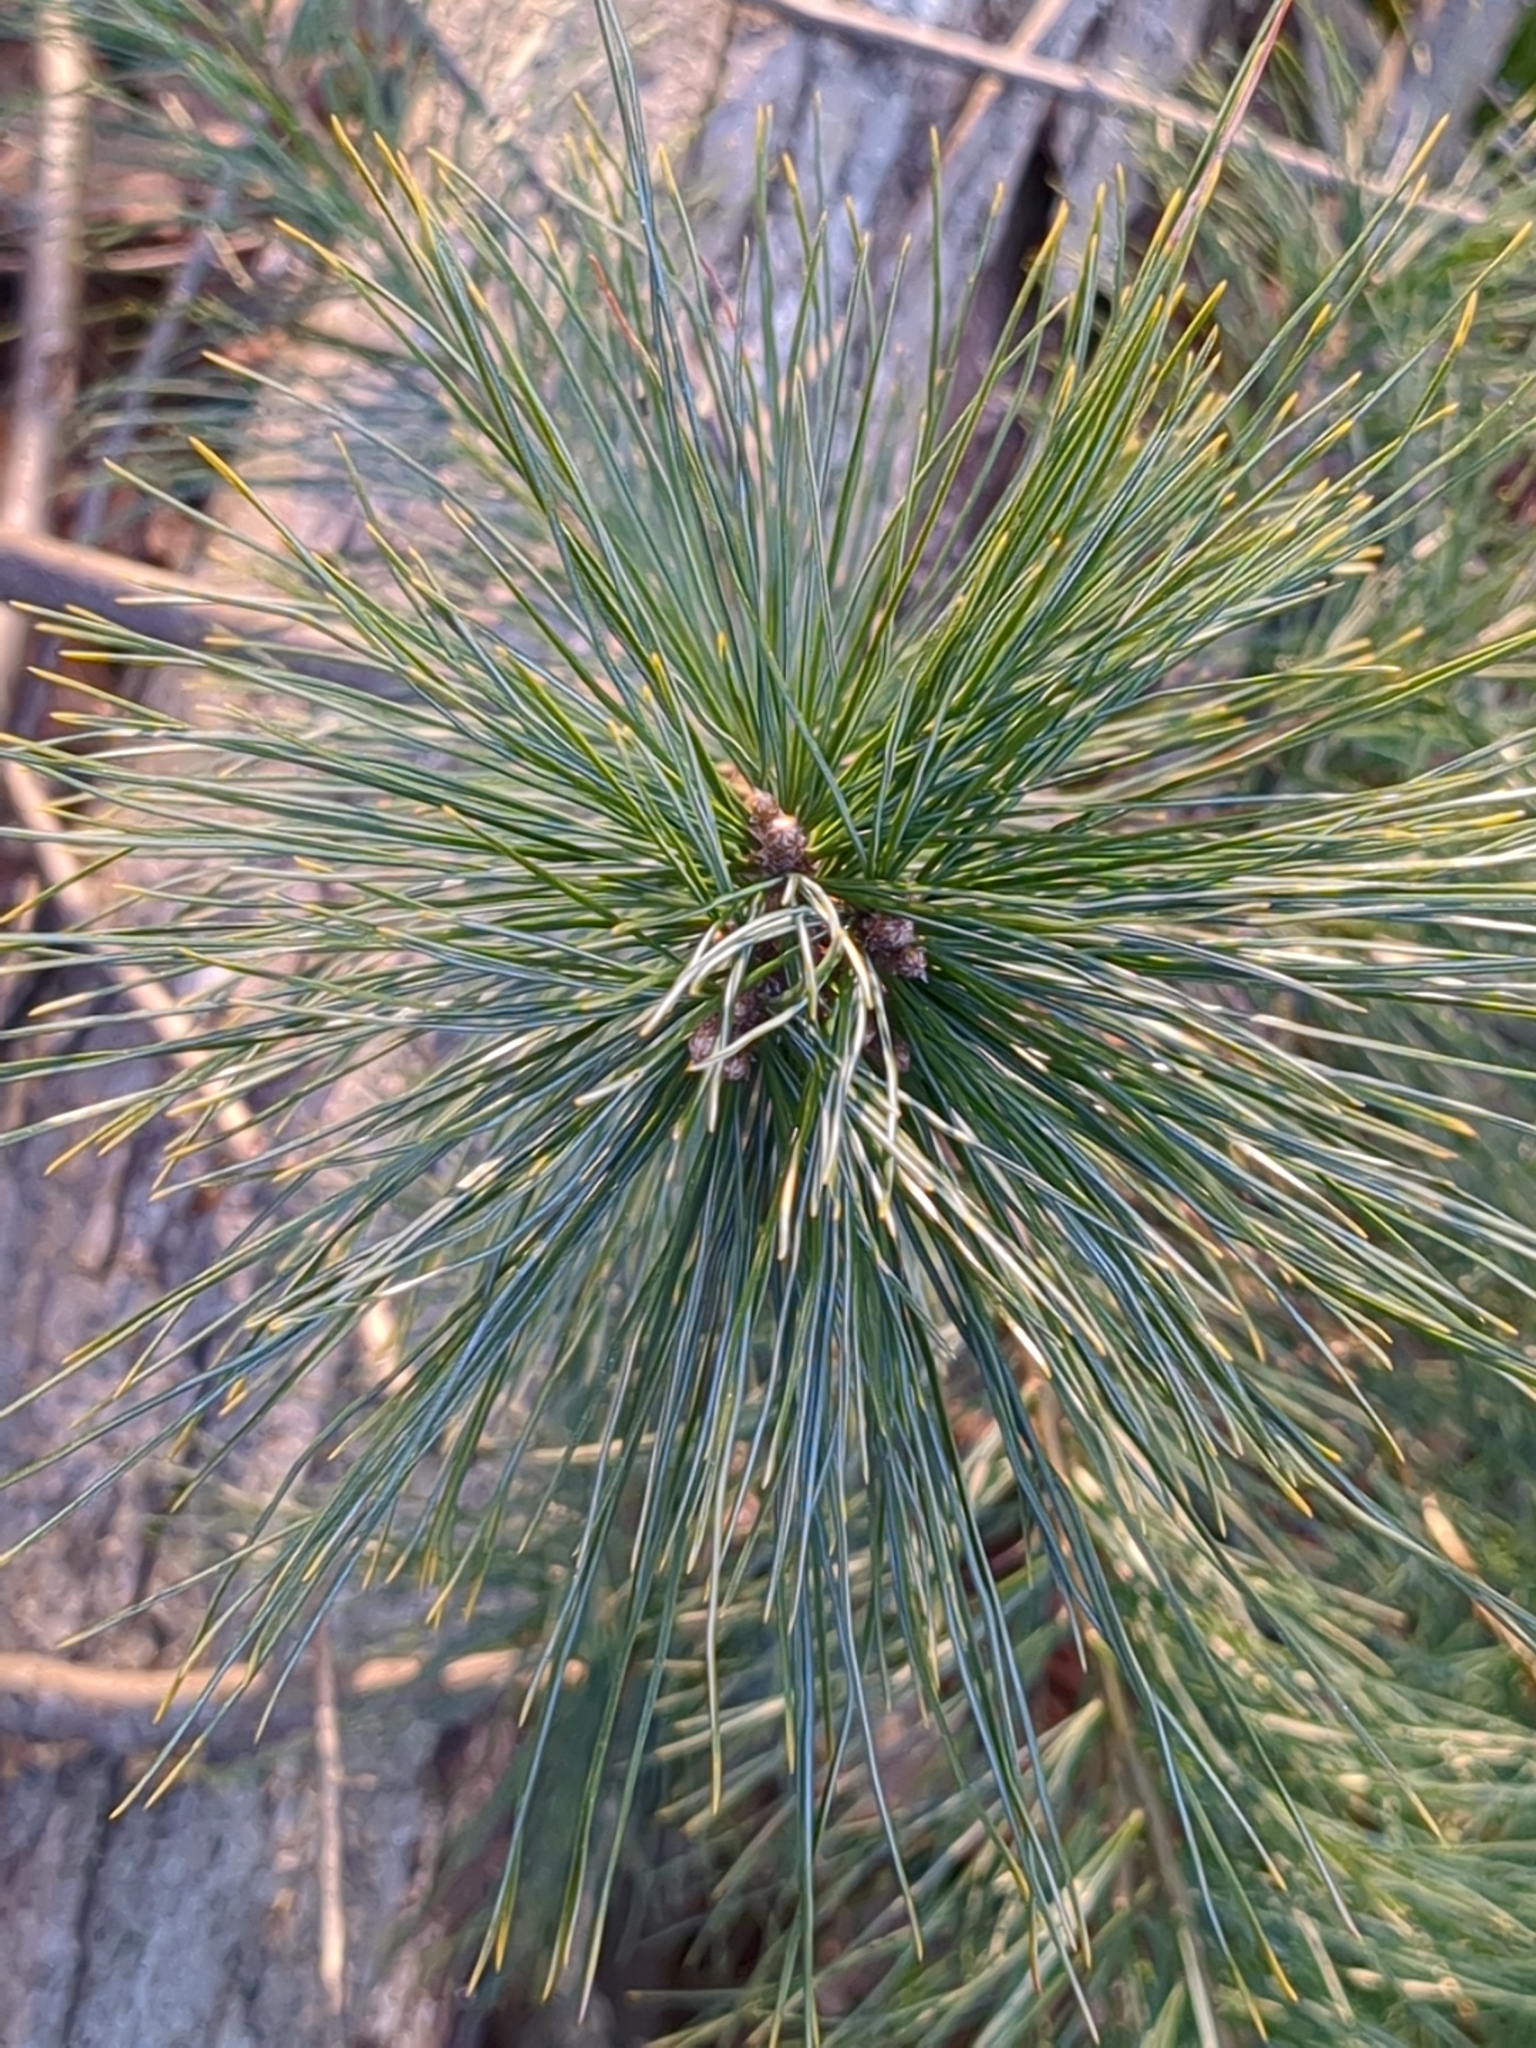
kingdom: Plantae
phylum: Tracheophyta
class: Pinopsida
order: Pinales
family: Pinaceae
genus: Pinus
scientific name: Pinus strobus
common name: Weymouth pine
